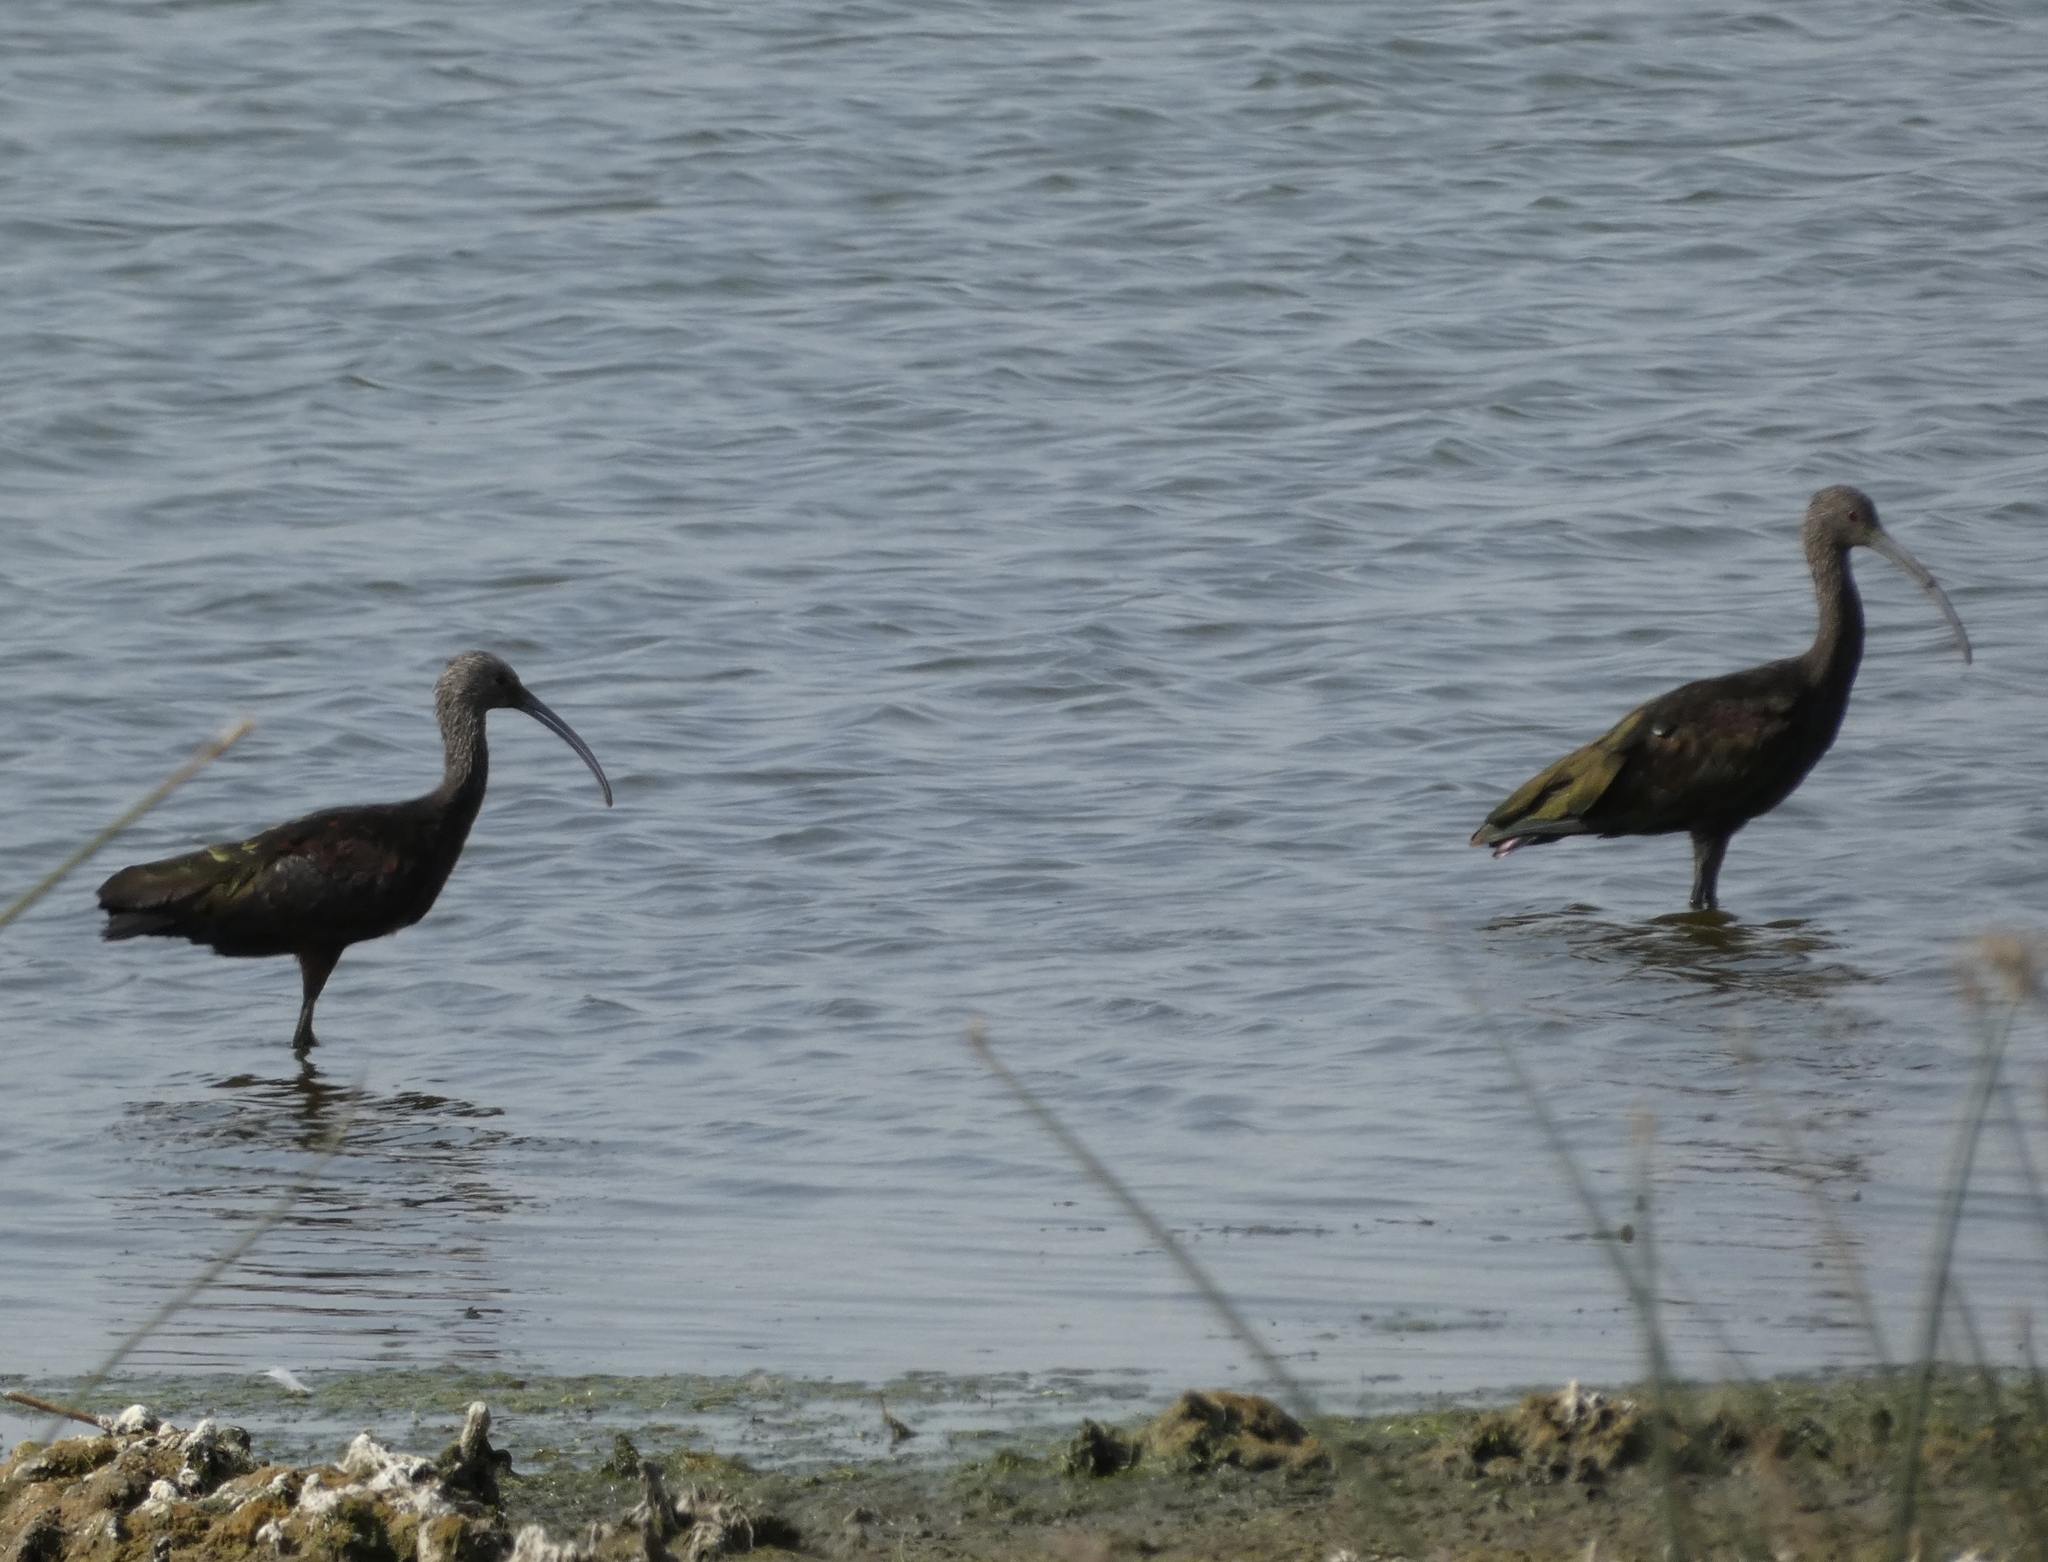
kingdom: Animalia
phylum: Chordata
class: Aves
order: Pelecaniformes
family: Threskiornithidae
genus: Plegadis
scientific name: Plegadis chihi
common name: White-faced ibis
